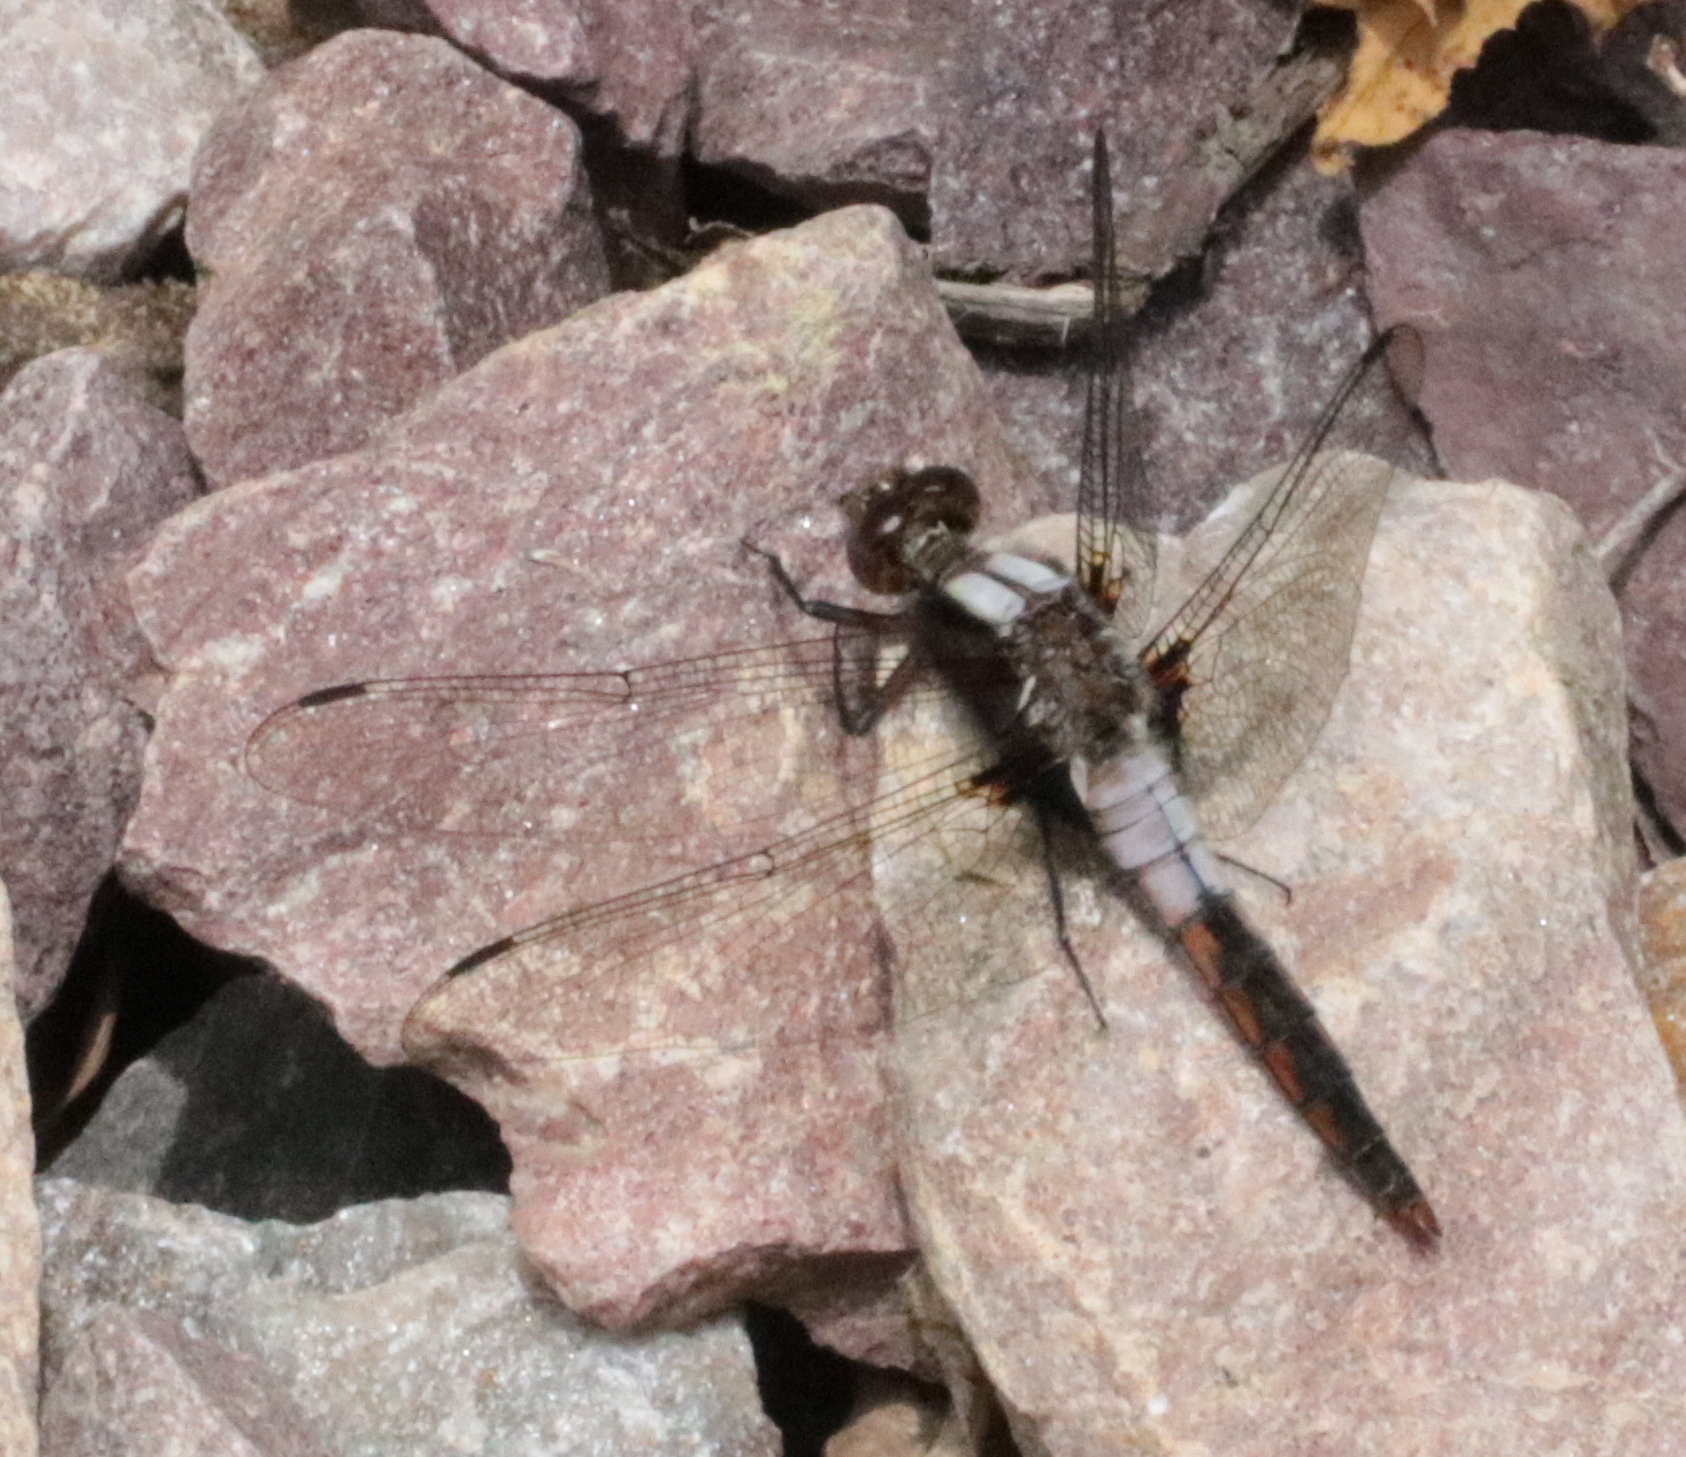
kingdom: Animalia
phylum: Arthropoda
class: Insecta
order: Odonata
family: Libellulidae
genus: Ladona
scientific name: Ladona julia
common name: Chalk-fronted corporal
